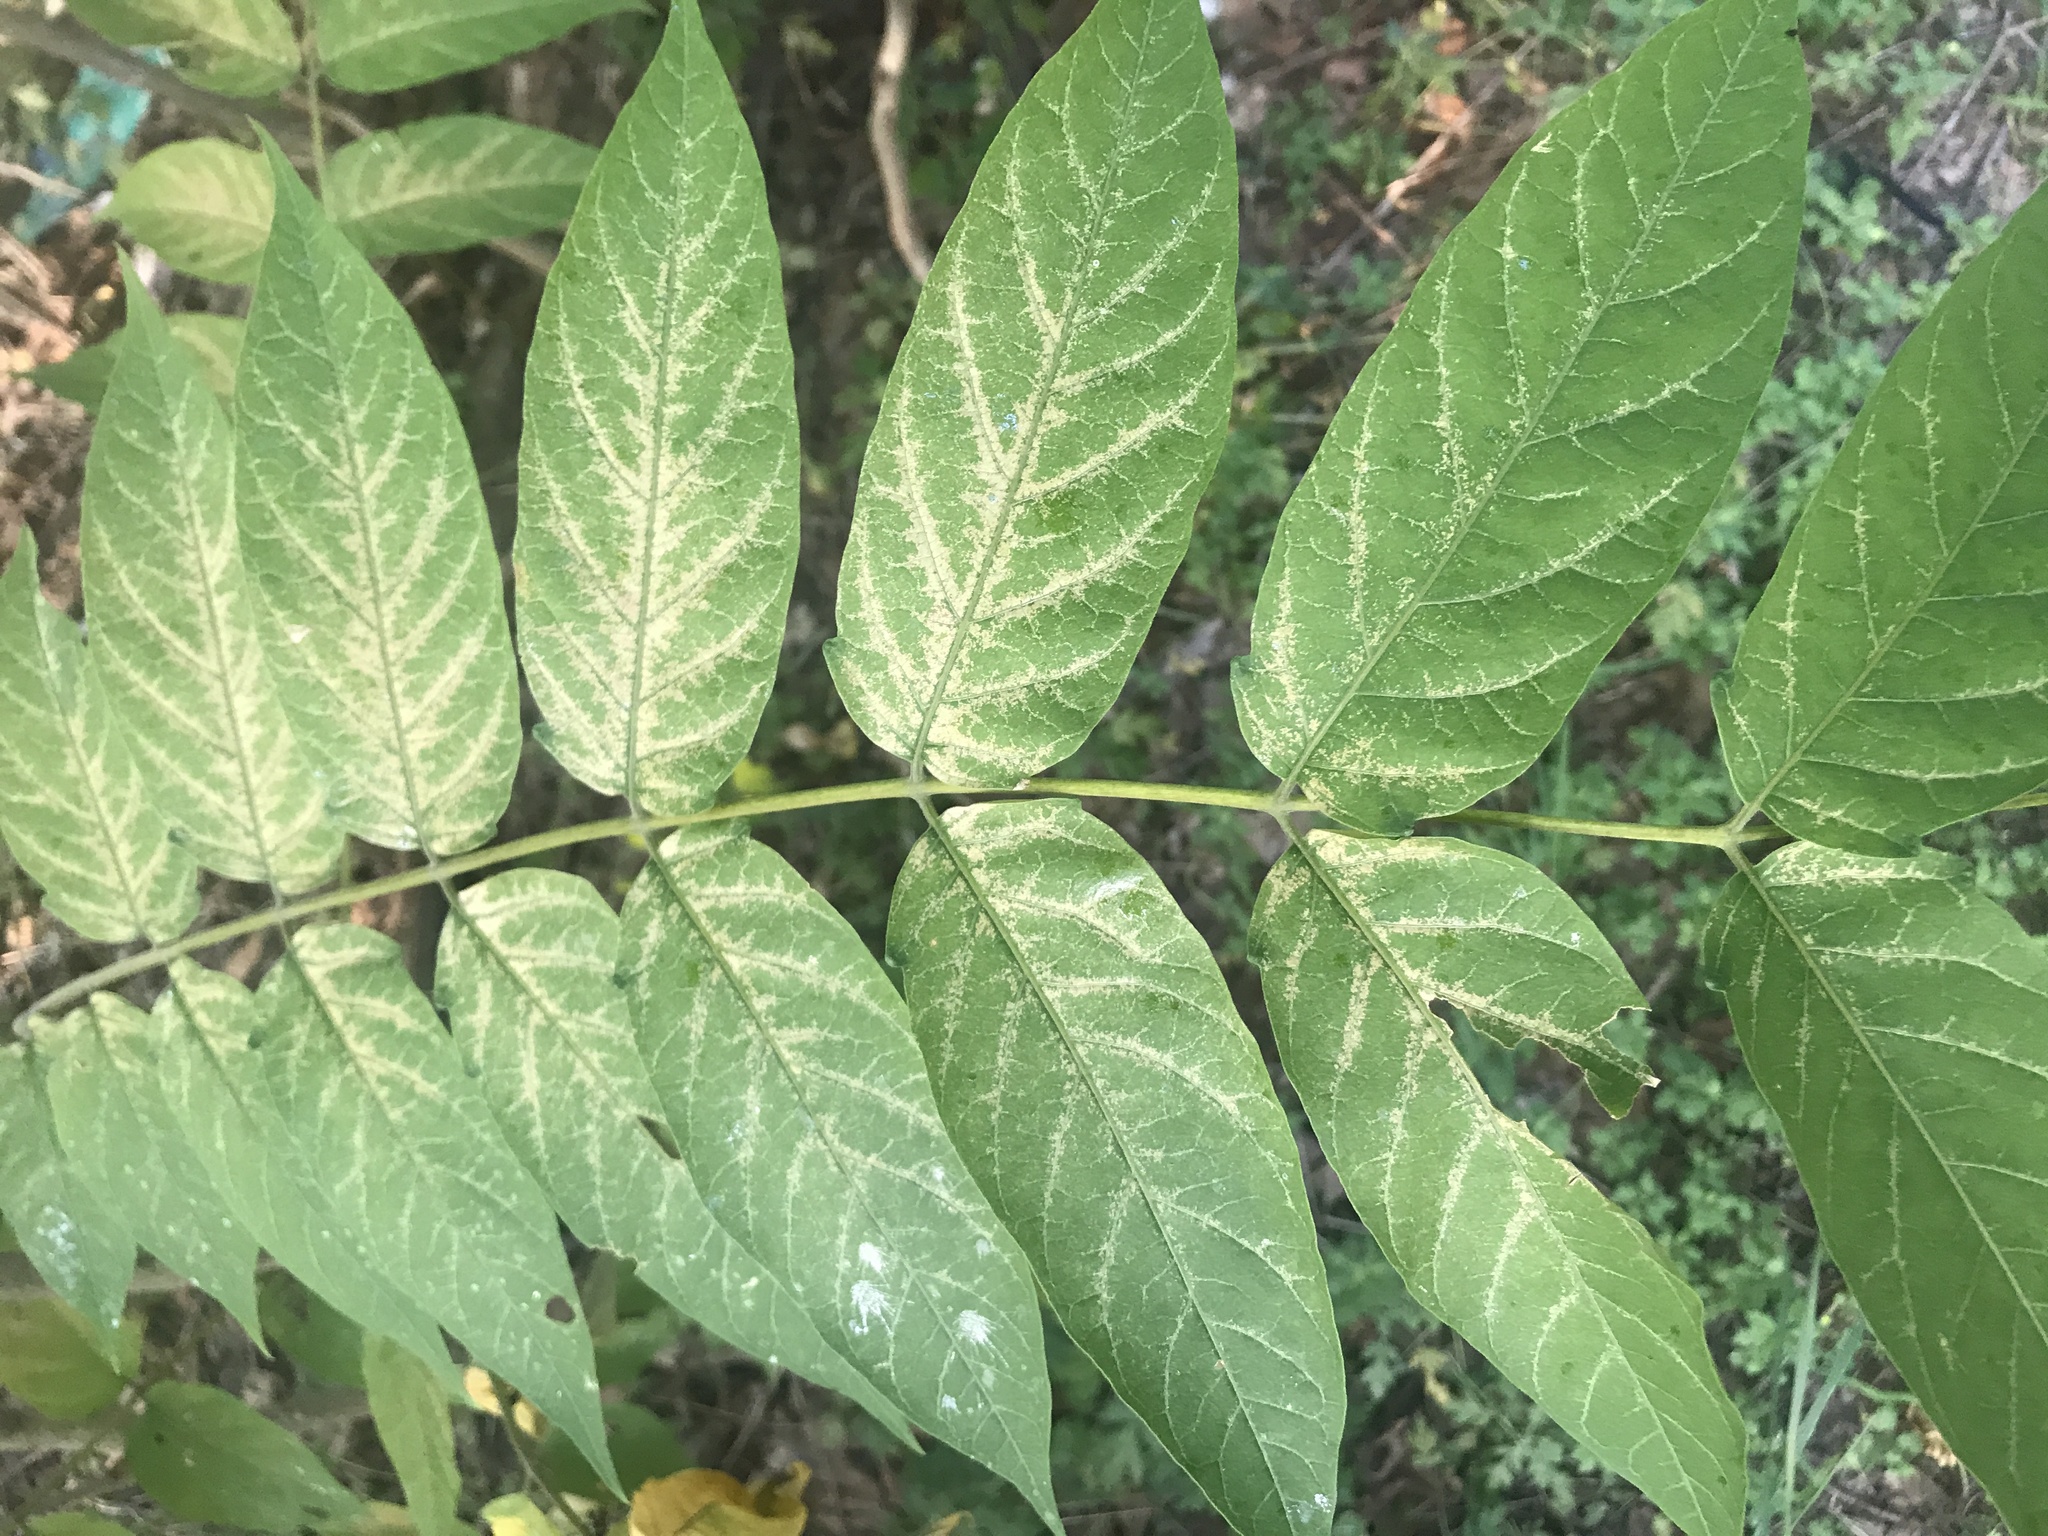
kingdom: Plantae
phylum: Tracheophyta
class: Magnoliopsida
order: Sapindales
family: Simaroubaceae
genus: Ailanthus
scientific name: Ailanthus altissima
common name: Tree-of-heaven
